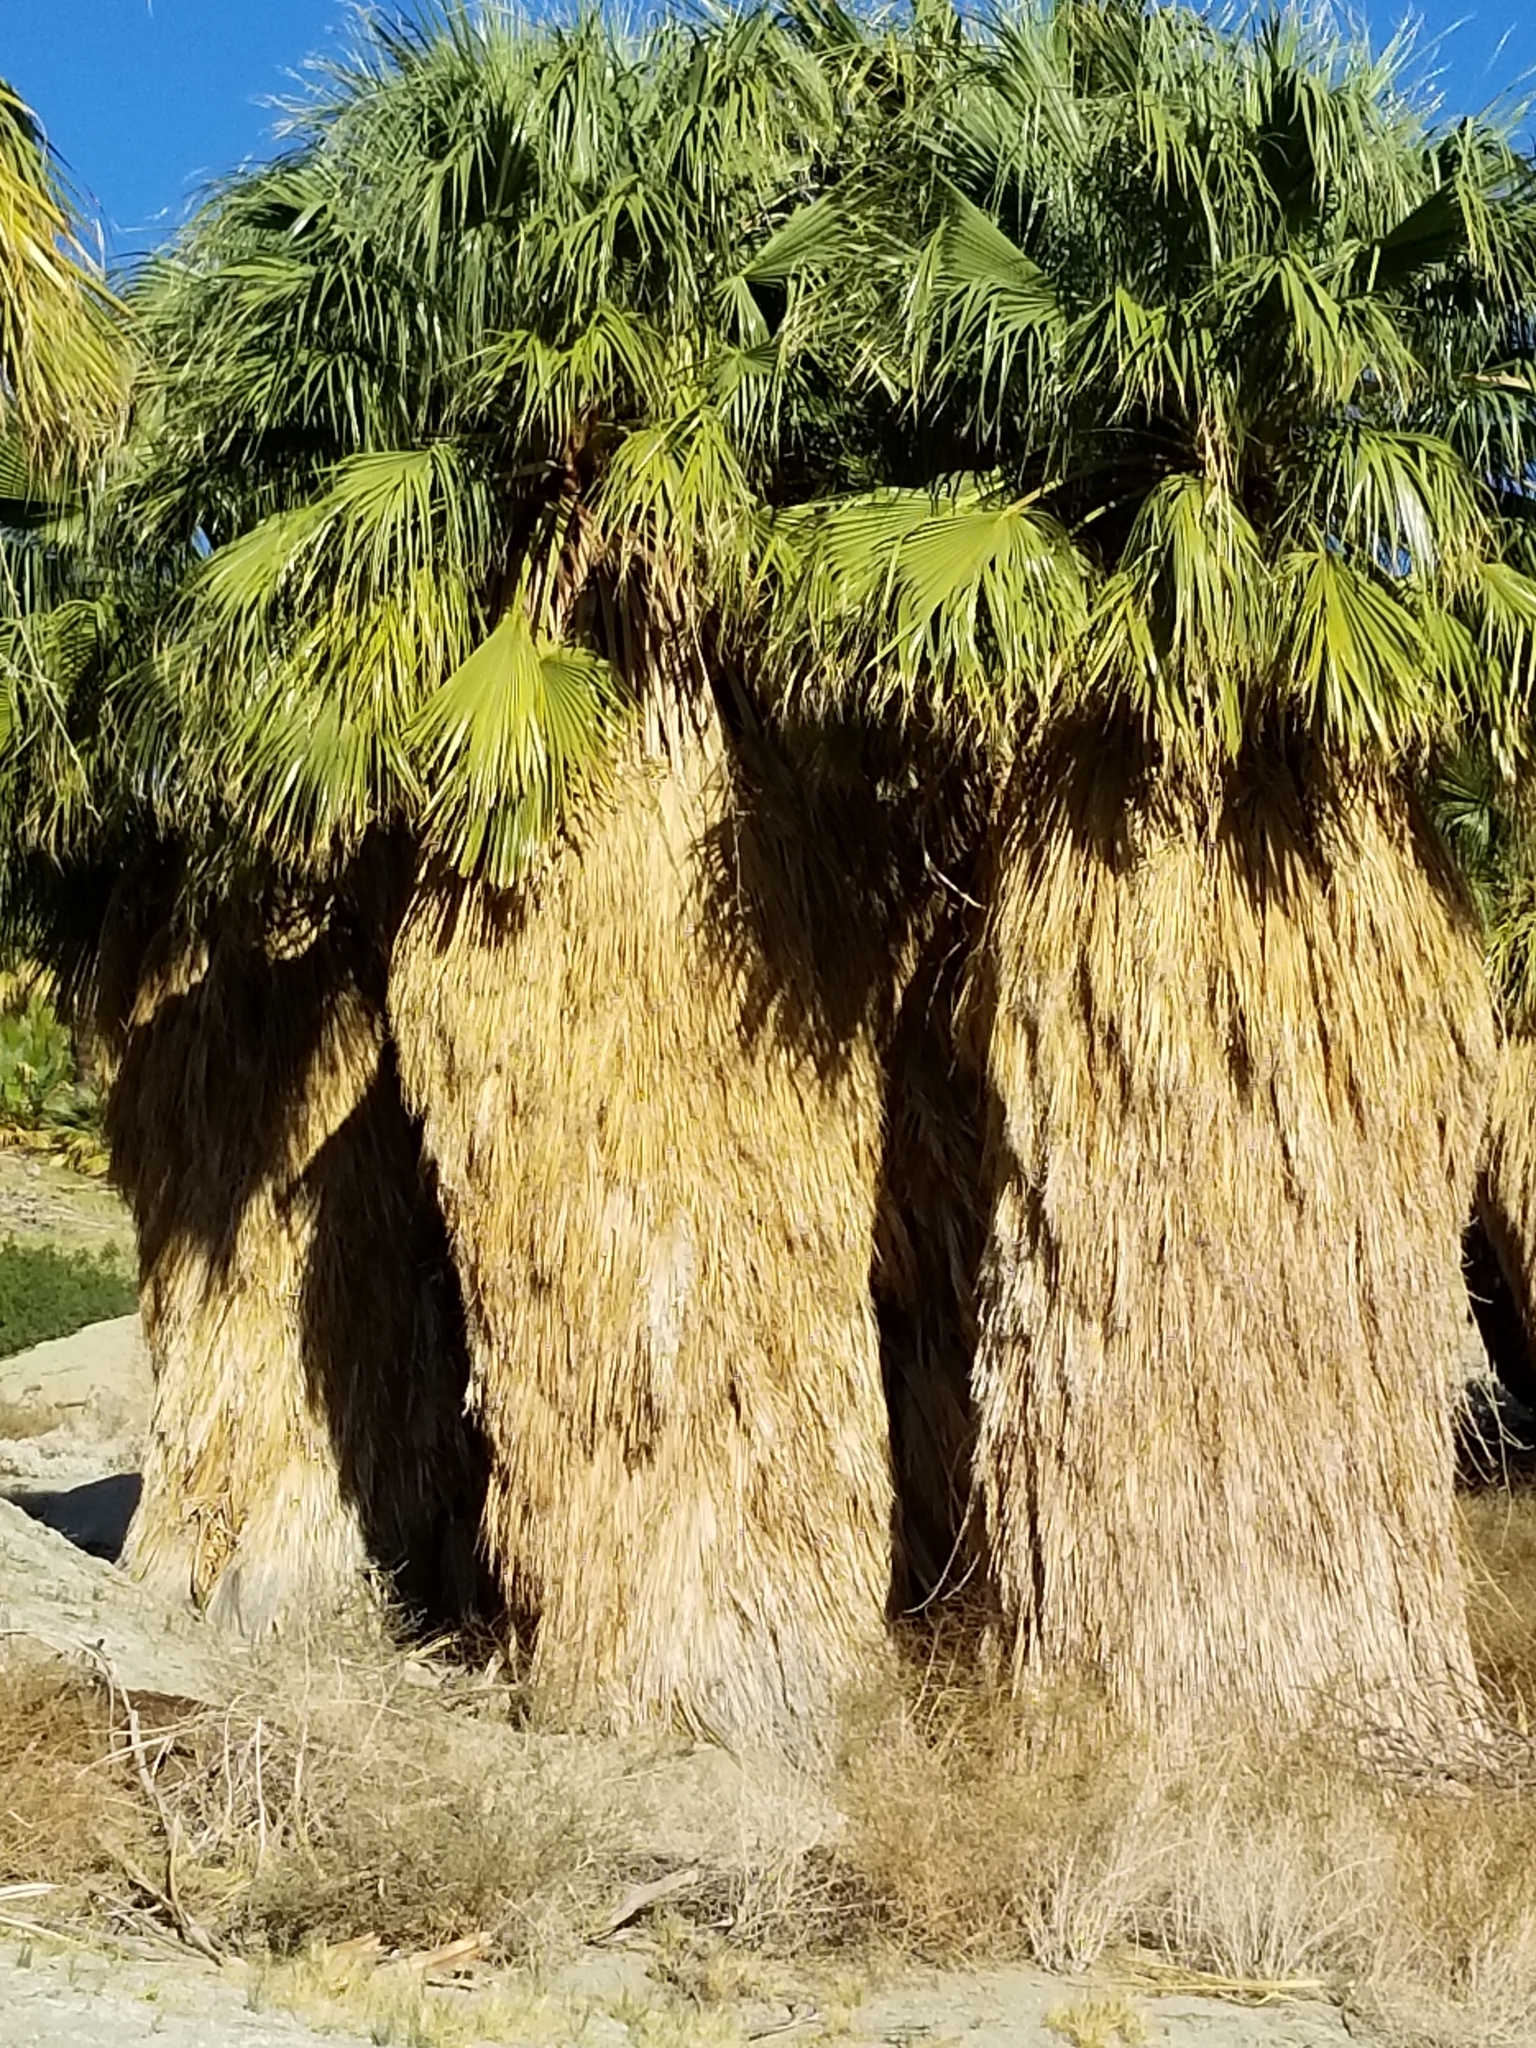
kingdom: Plantae
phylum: Tracheophyta
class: Liliopsida
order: Arecales
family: Arecaceae
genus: Washingtonia
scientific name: Washingtonia filifera
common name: California fan palm
